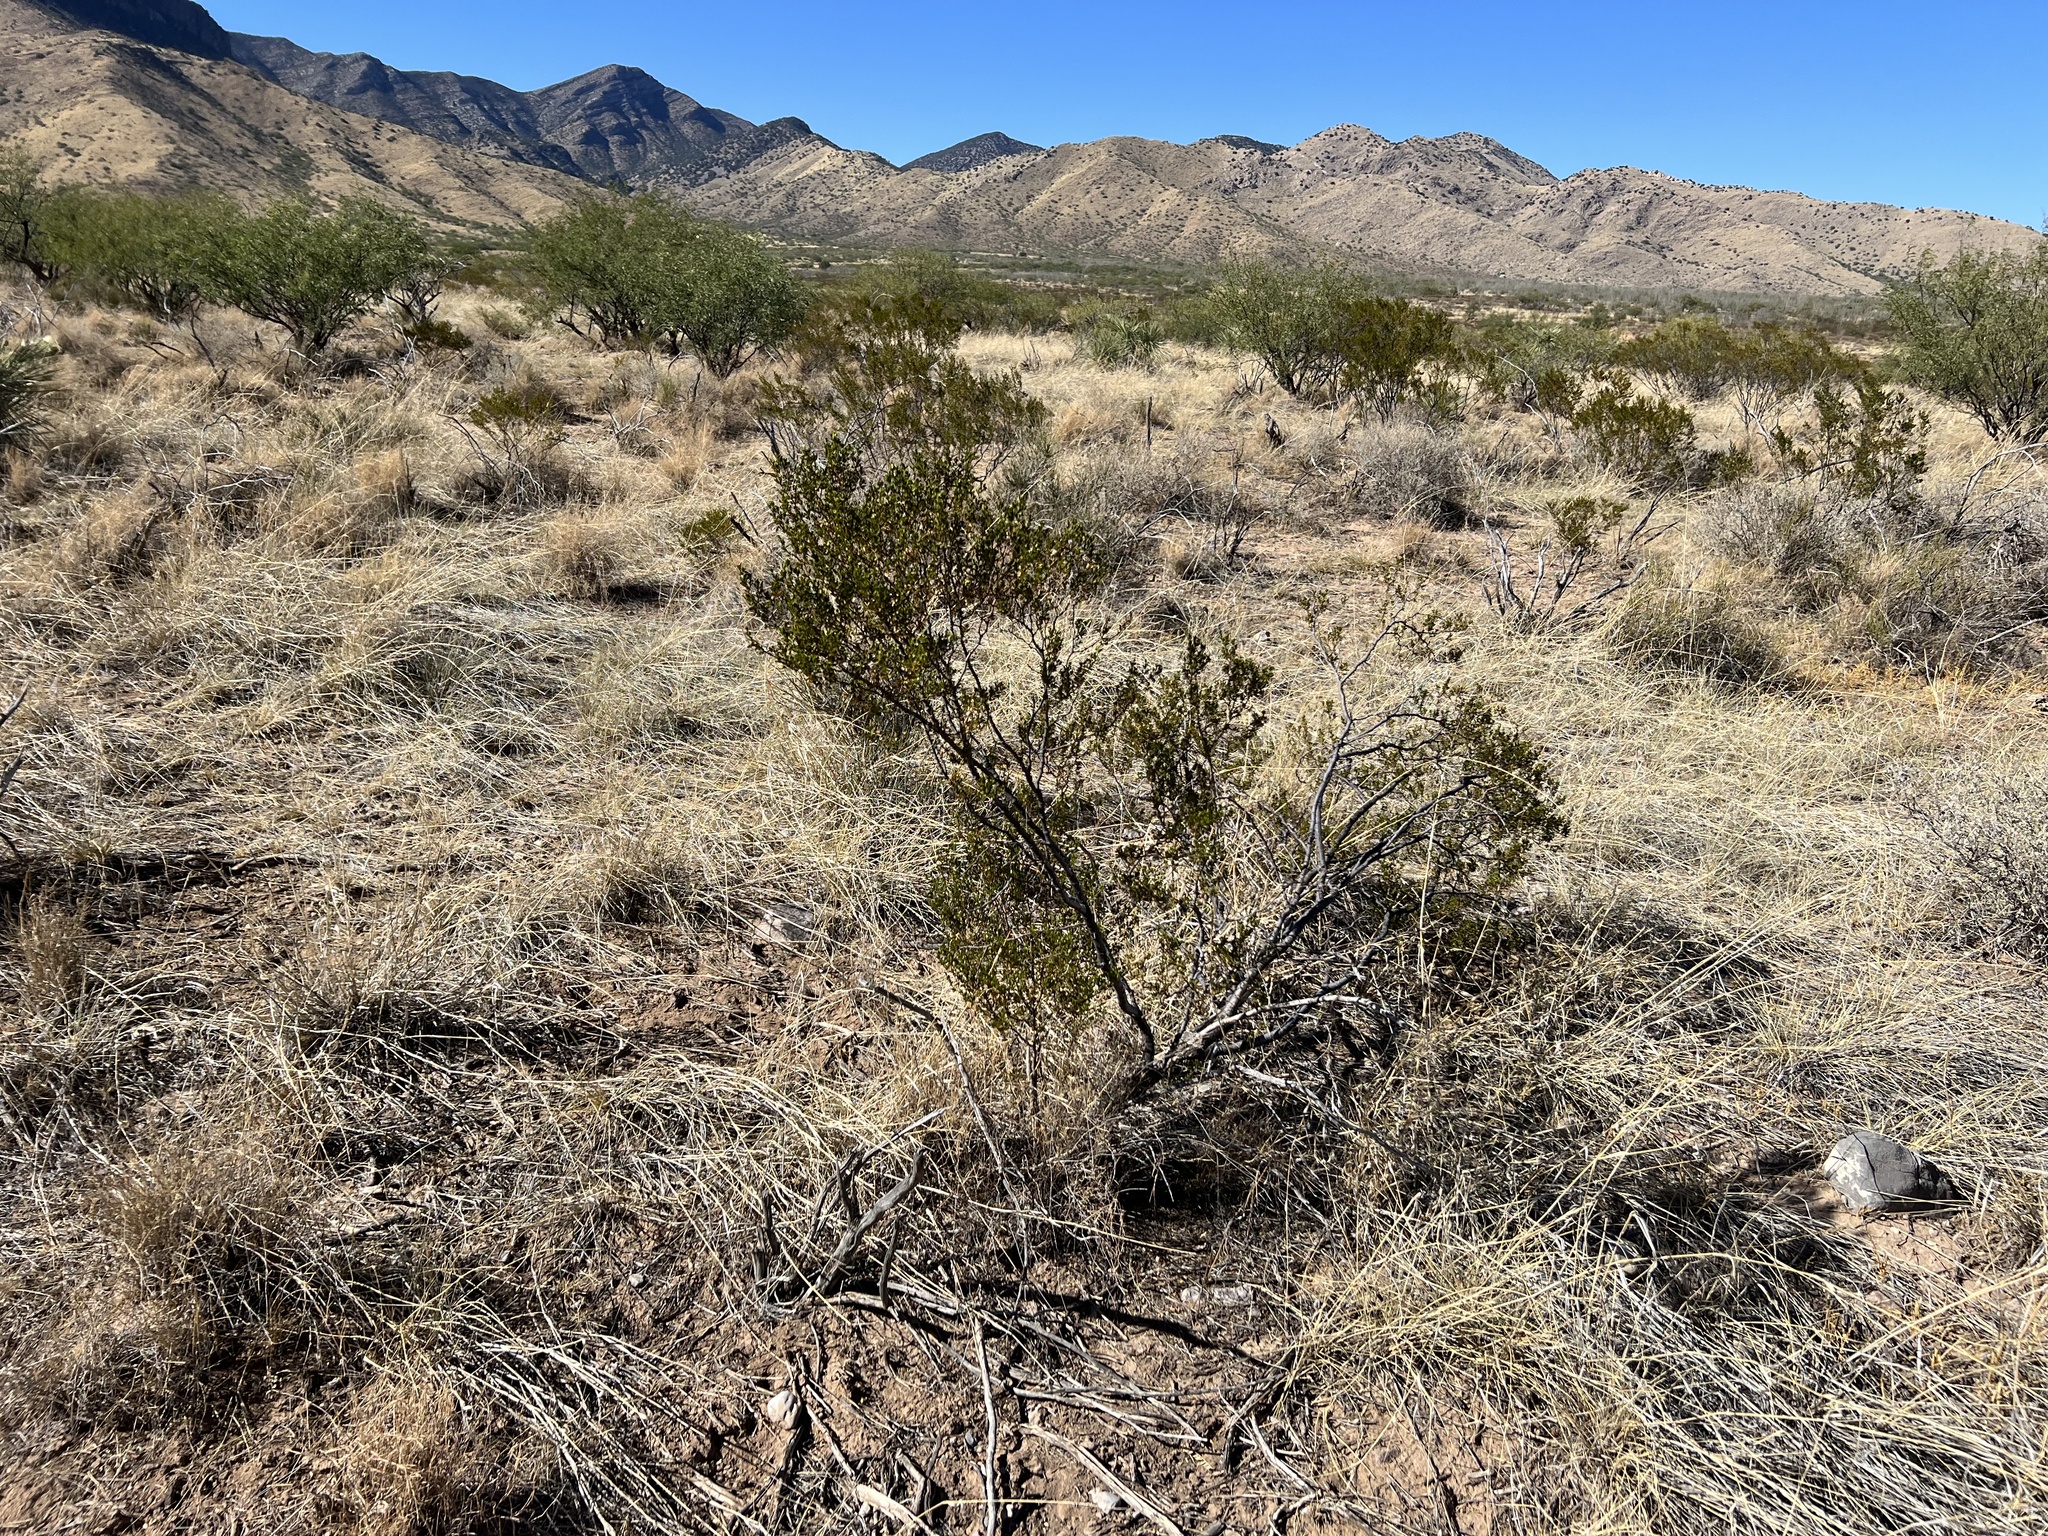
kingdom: Plantae
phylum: Tracheophyta
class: Magnoliopsida
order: Zygophyllales
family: Zygophyllaceae
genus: Larrea
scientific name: Larrea tridentata
